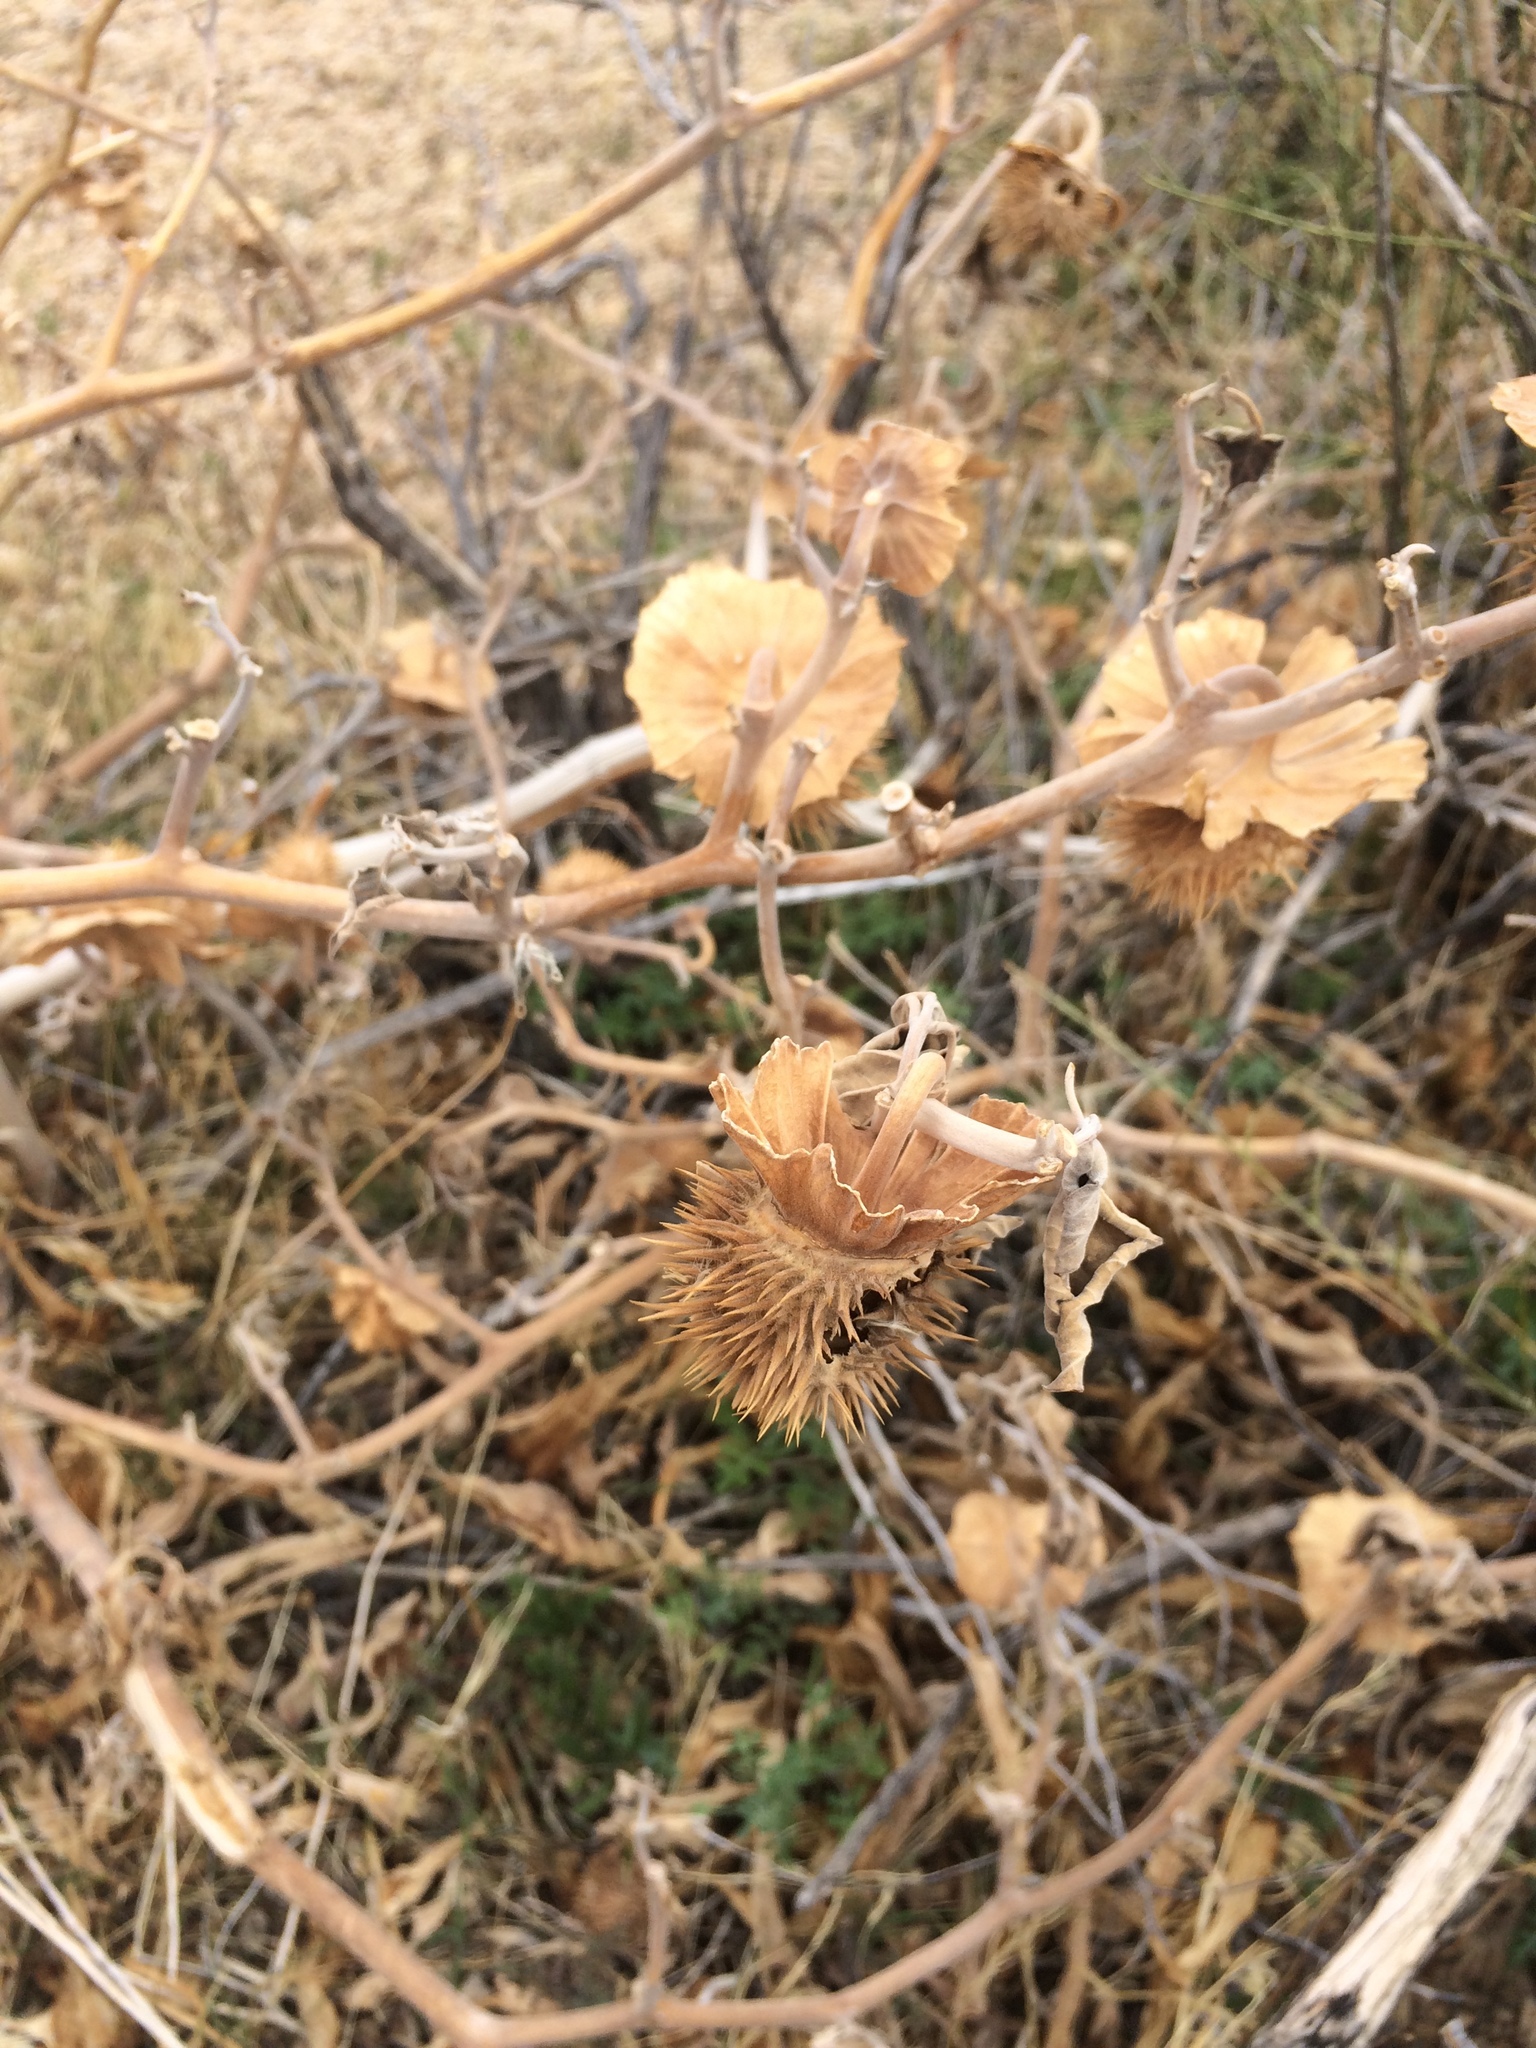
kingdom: Plantae
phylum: Tracheophyta
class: Magnoliopsida
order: Solanales
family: Solanaceae
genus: Datura
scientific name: Datura wrightii
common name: Sacred thorn-apple
